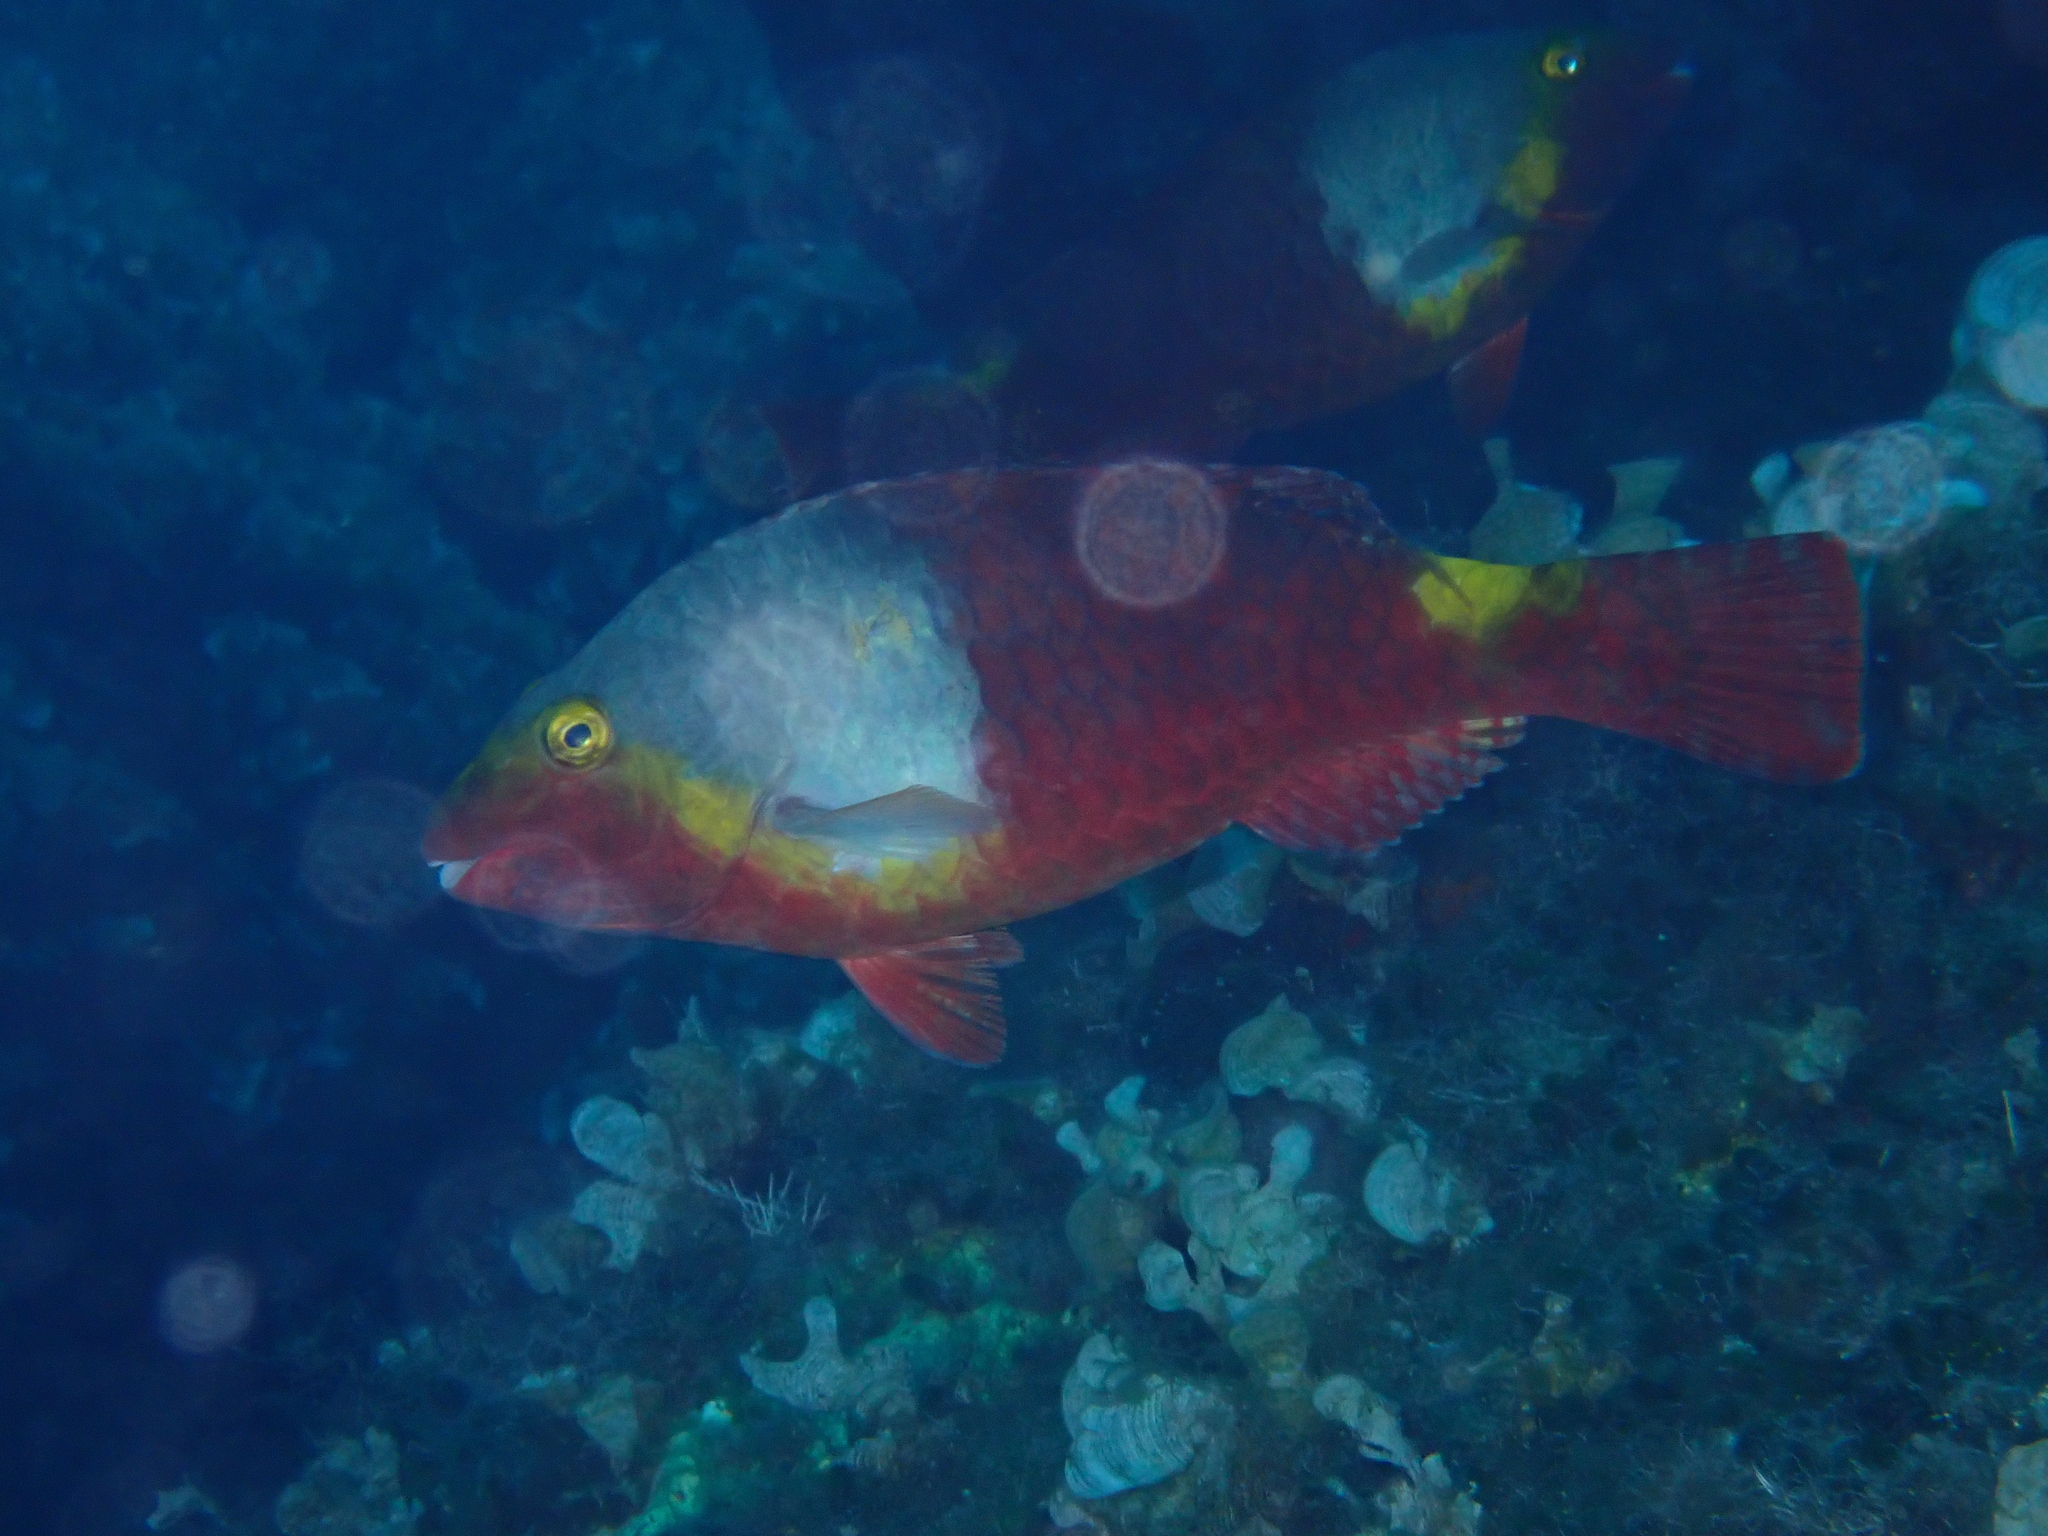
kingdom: Animalia
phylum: Chordata
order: Perciformes
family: Scaridae
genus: Sparisoma
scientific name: Sparisoma cretense
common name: Parrotfish
